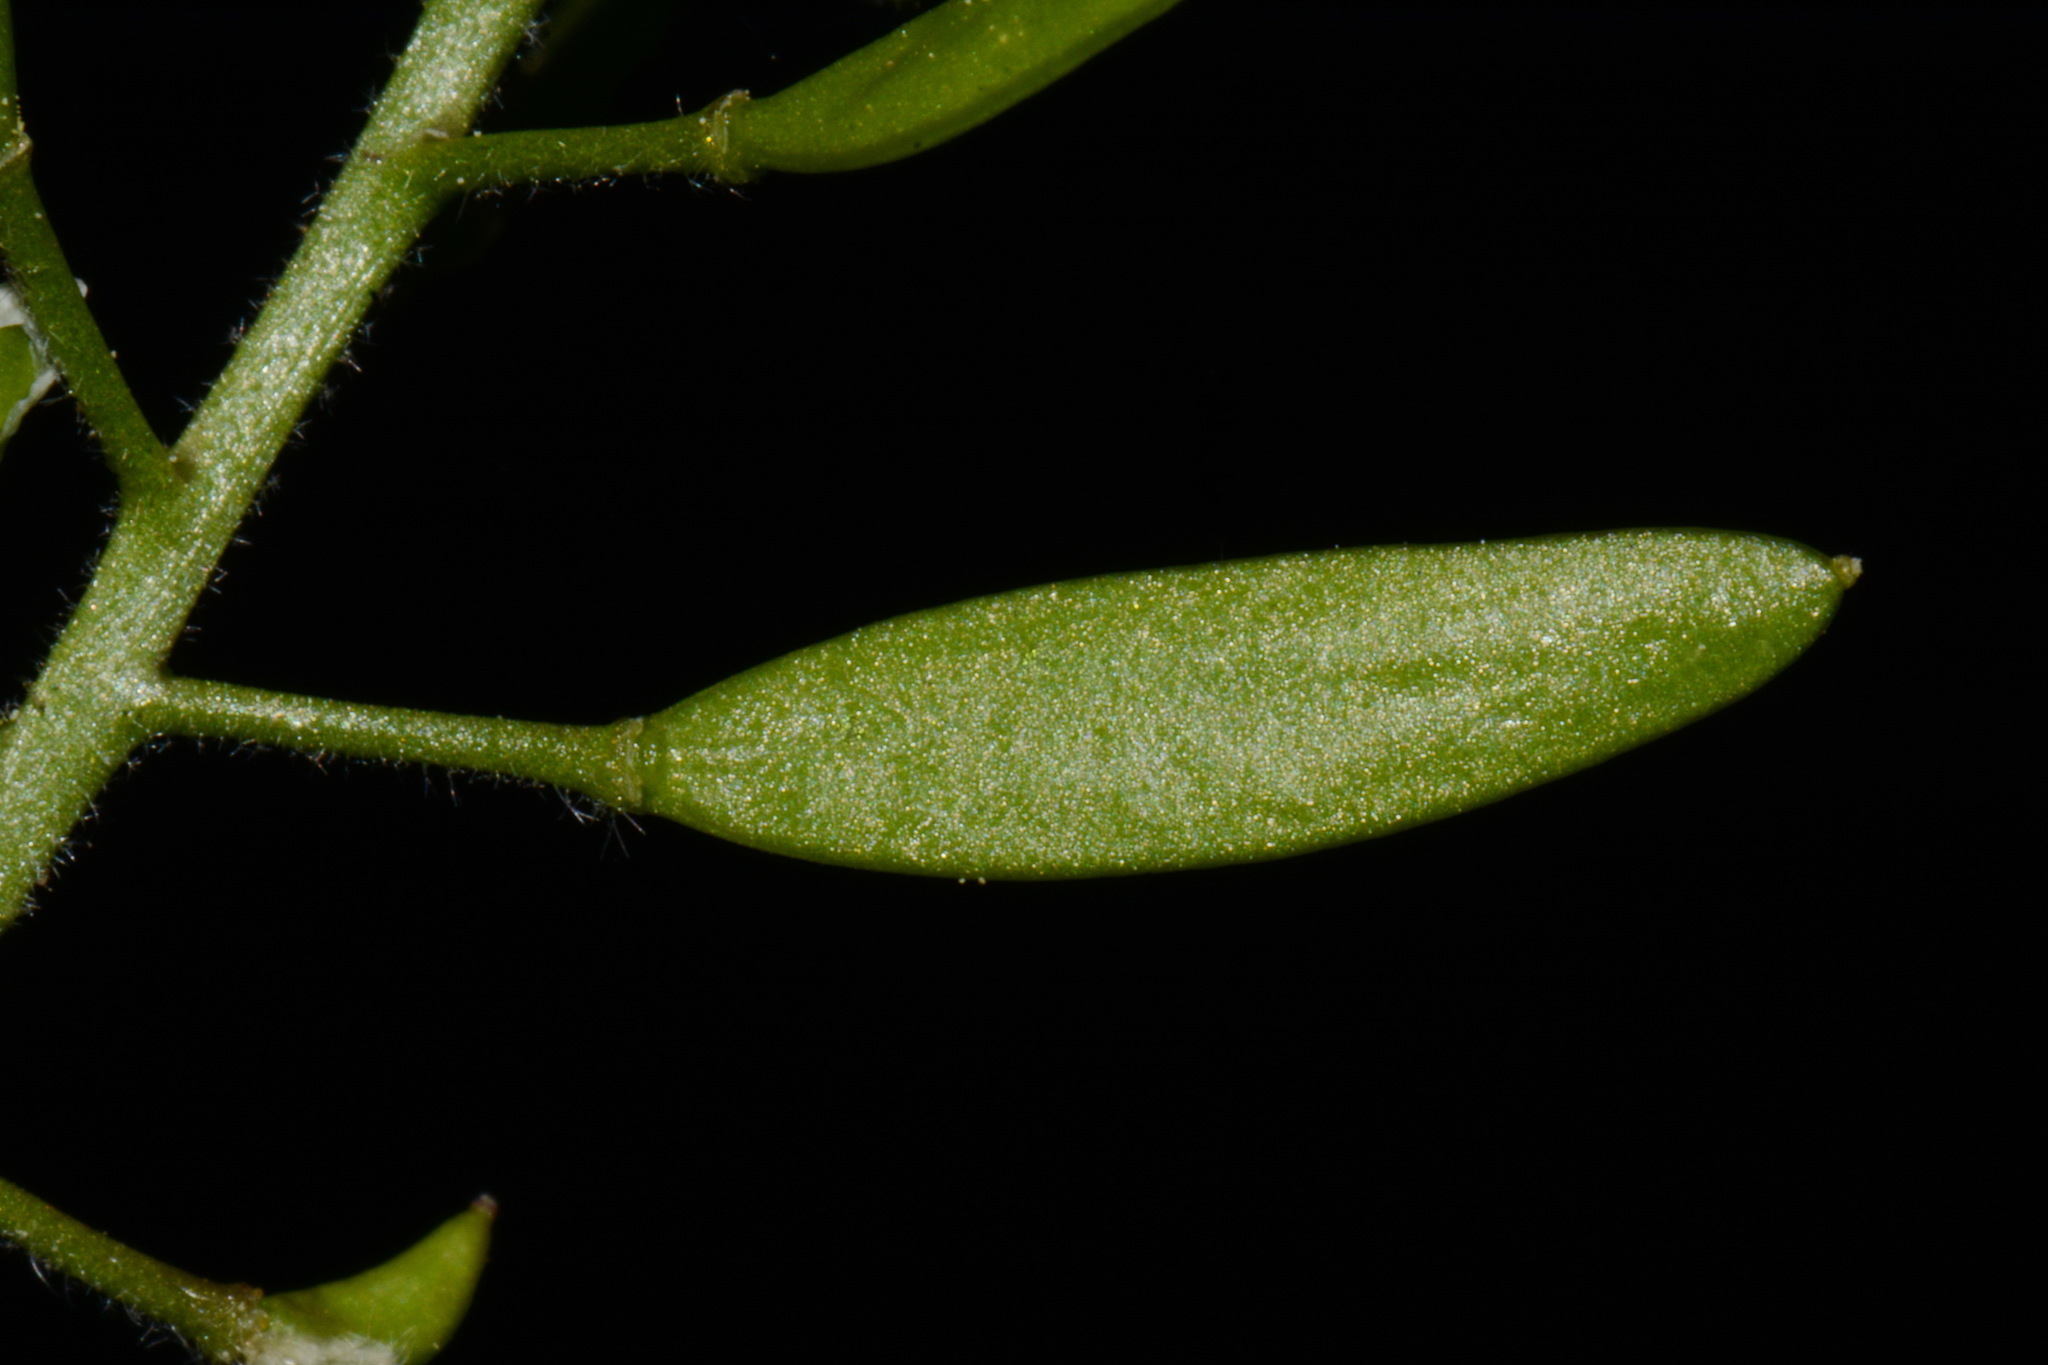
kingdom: Plantae
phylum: Tracheophyta
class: Magnoliopsida
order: Brassicales
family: Brassicaceae
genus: Tomostima
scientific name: Tomostima cuneifolia
